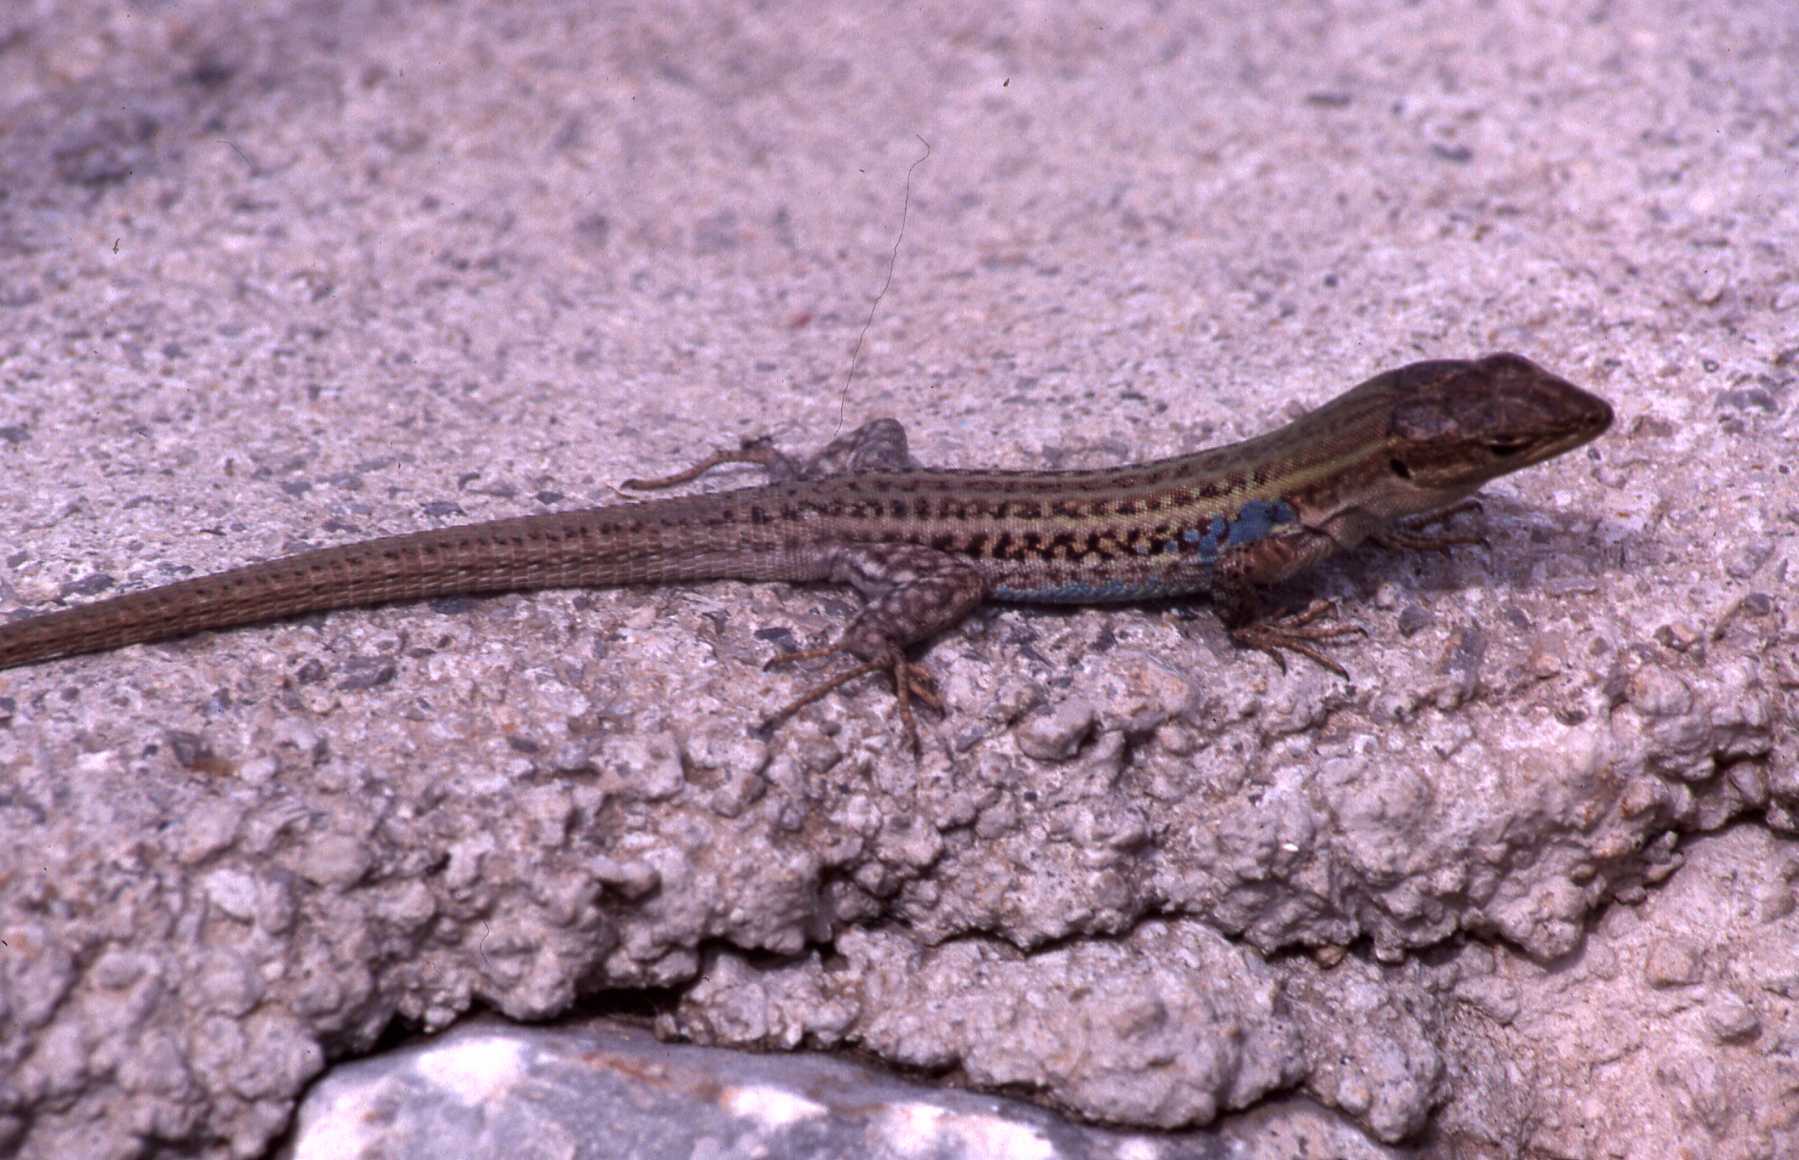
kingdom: Animalia
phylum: Chordata
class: Squamata
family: Lacertidae
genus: Podarcis
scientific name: Podarcis peloponnesiacus
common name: Peloponnese wall lizard
